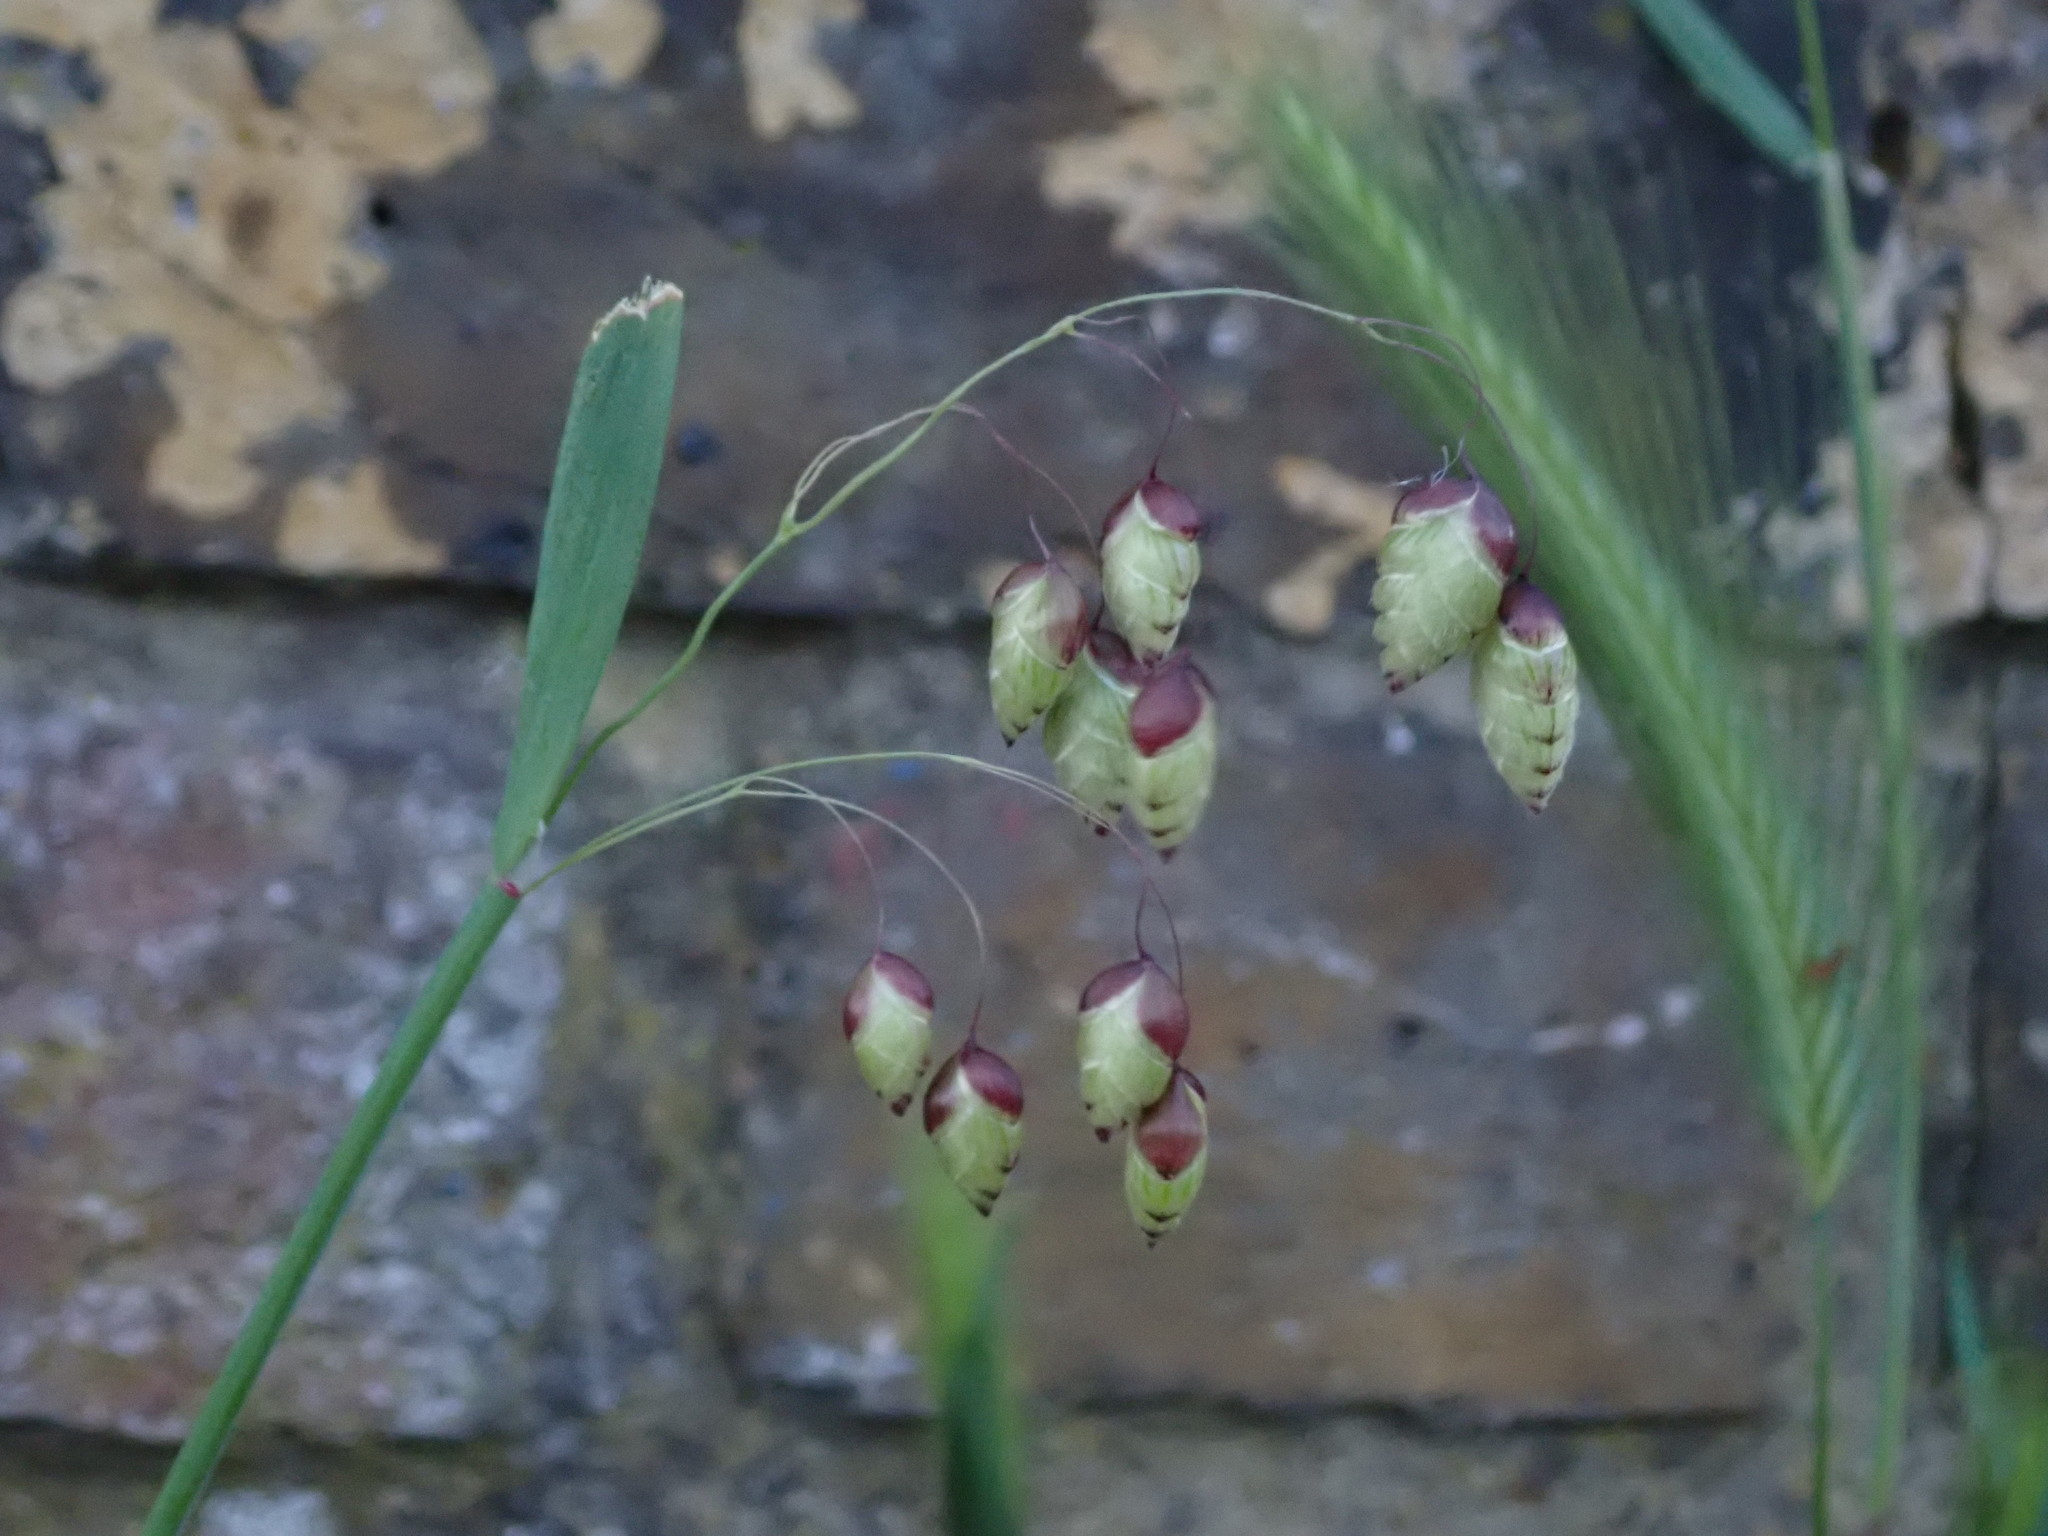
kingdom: Plantae
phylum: Tracheophyta
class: Liliopsida
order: Poales
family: Poaceae
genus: Briza
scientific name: Briza maxima
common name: Big quakinggrass
